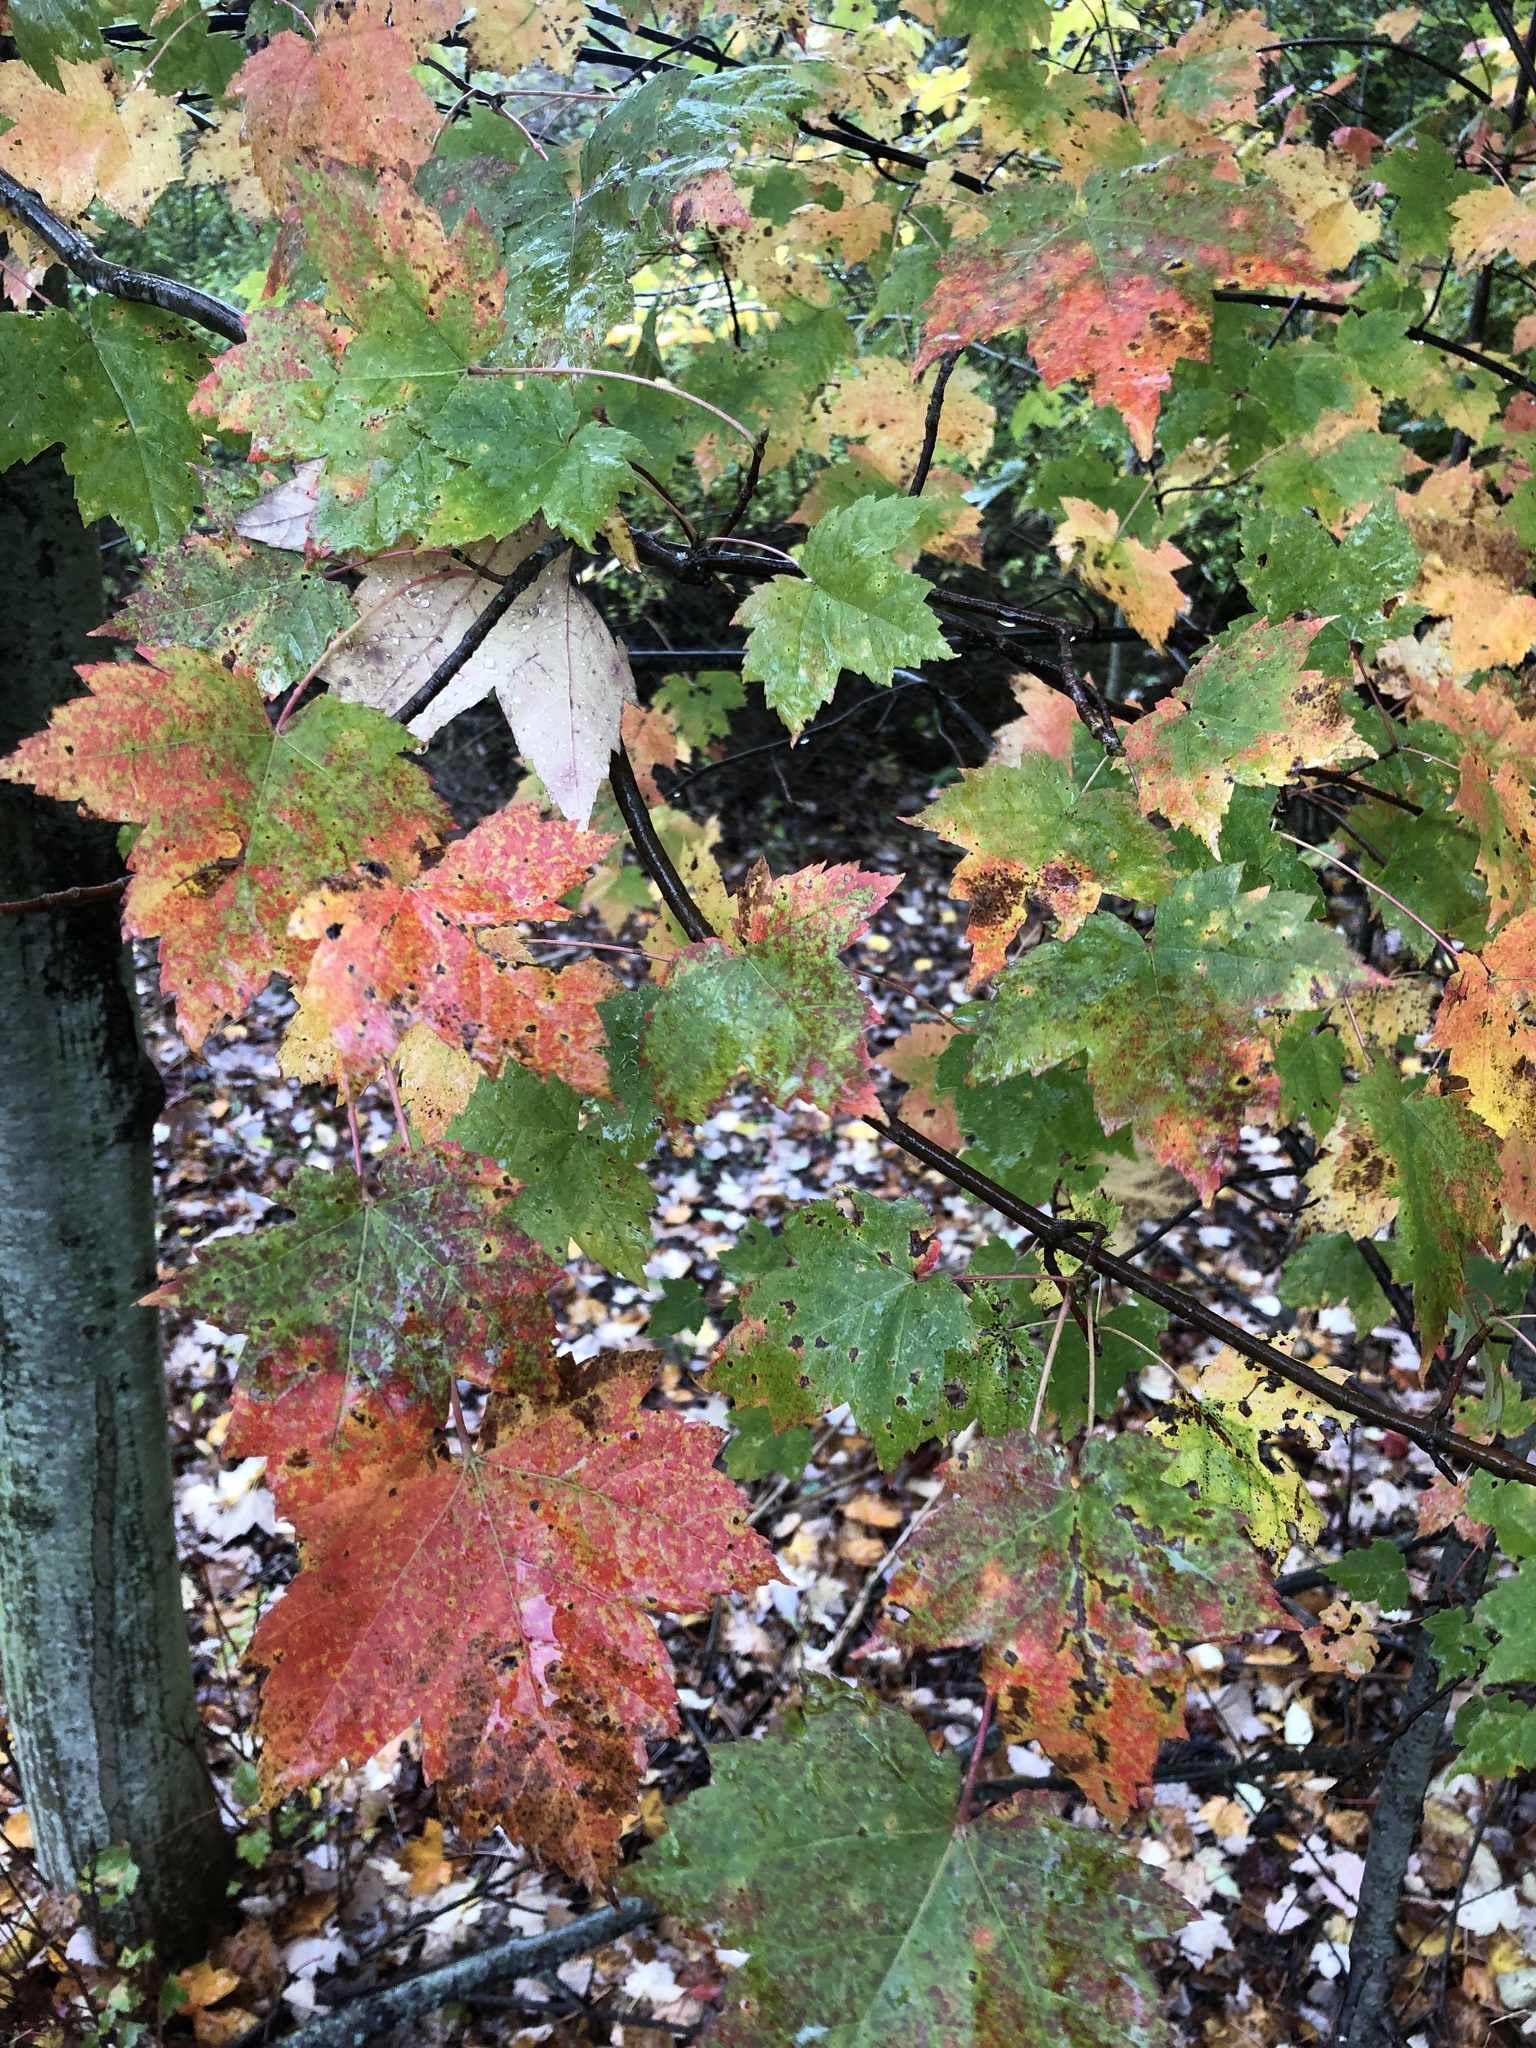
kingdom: Plantae
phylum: Tracheophyta
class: Magnoliopsida
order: Sapindales
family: Sapindaceae
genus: Acer
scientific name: Acer rubrum
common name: Red maple
